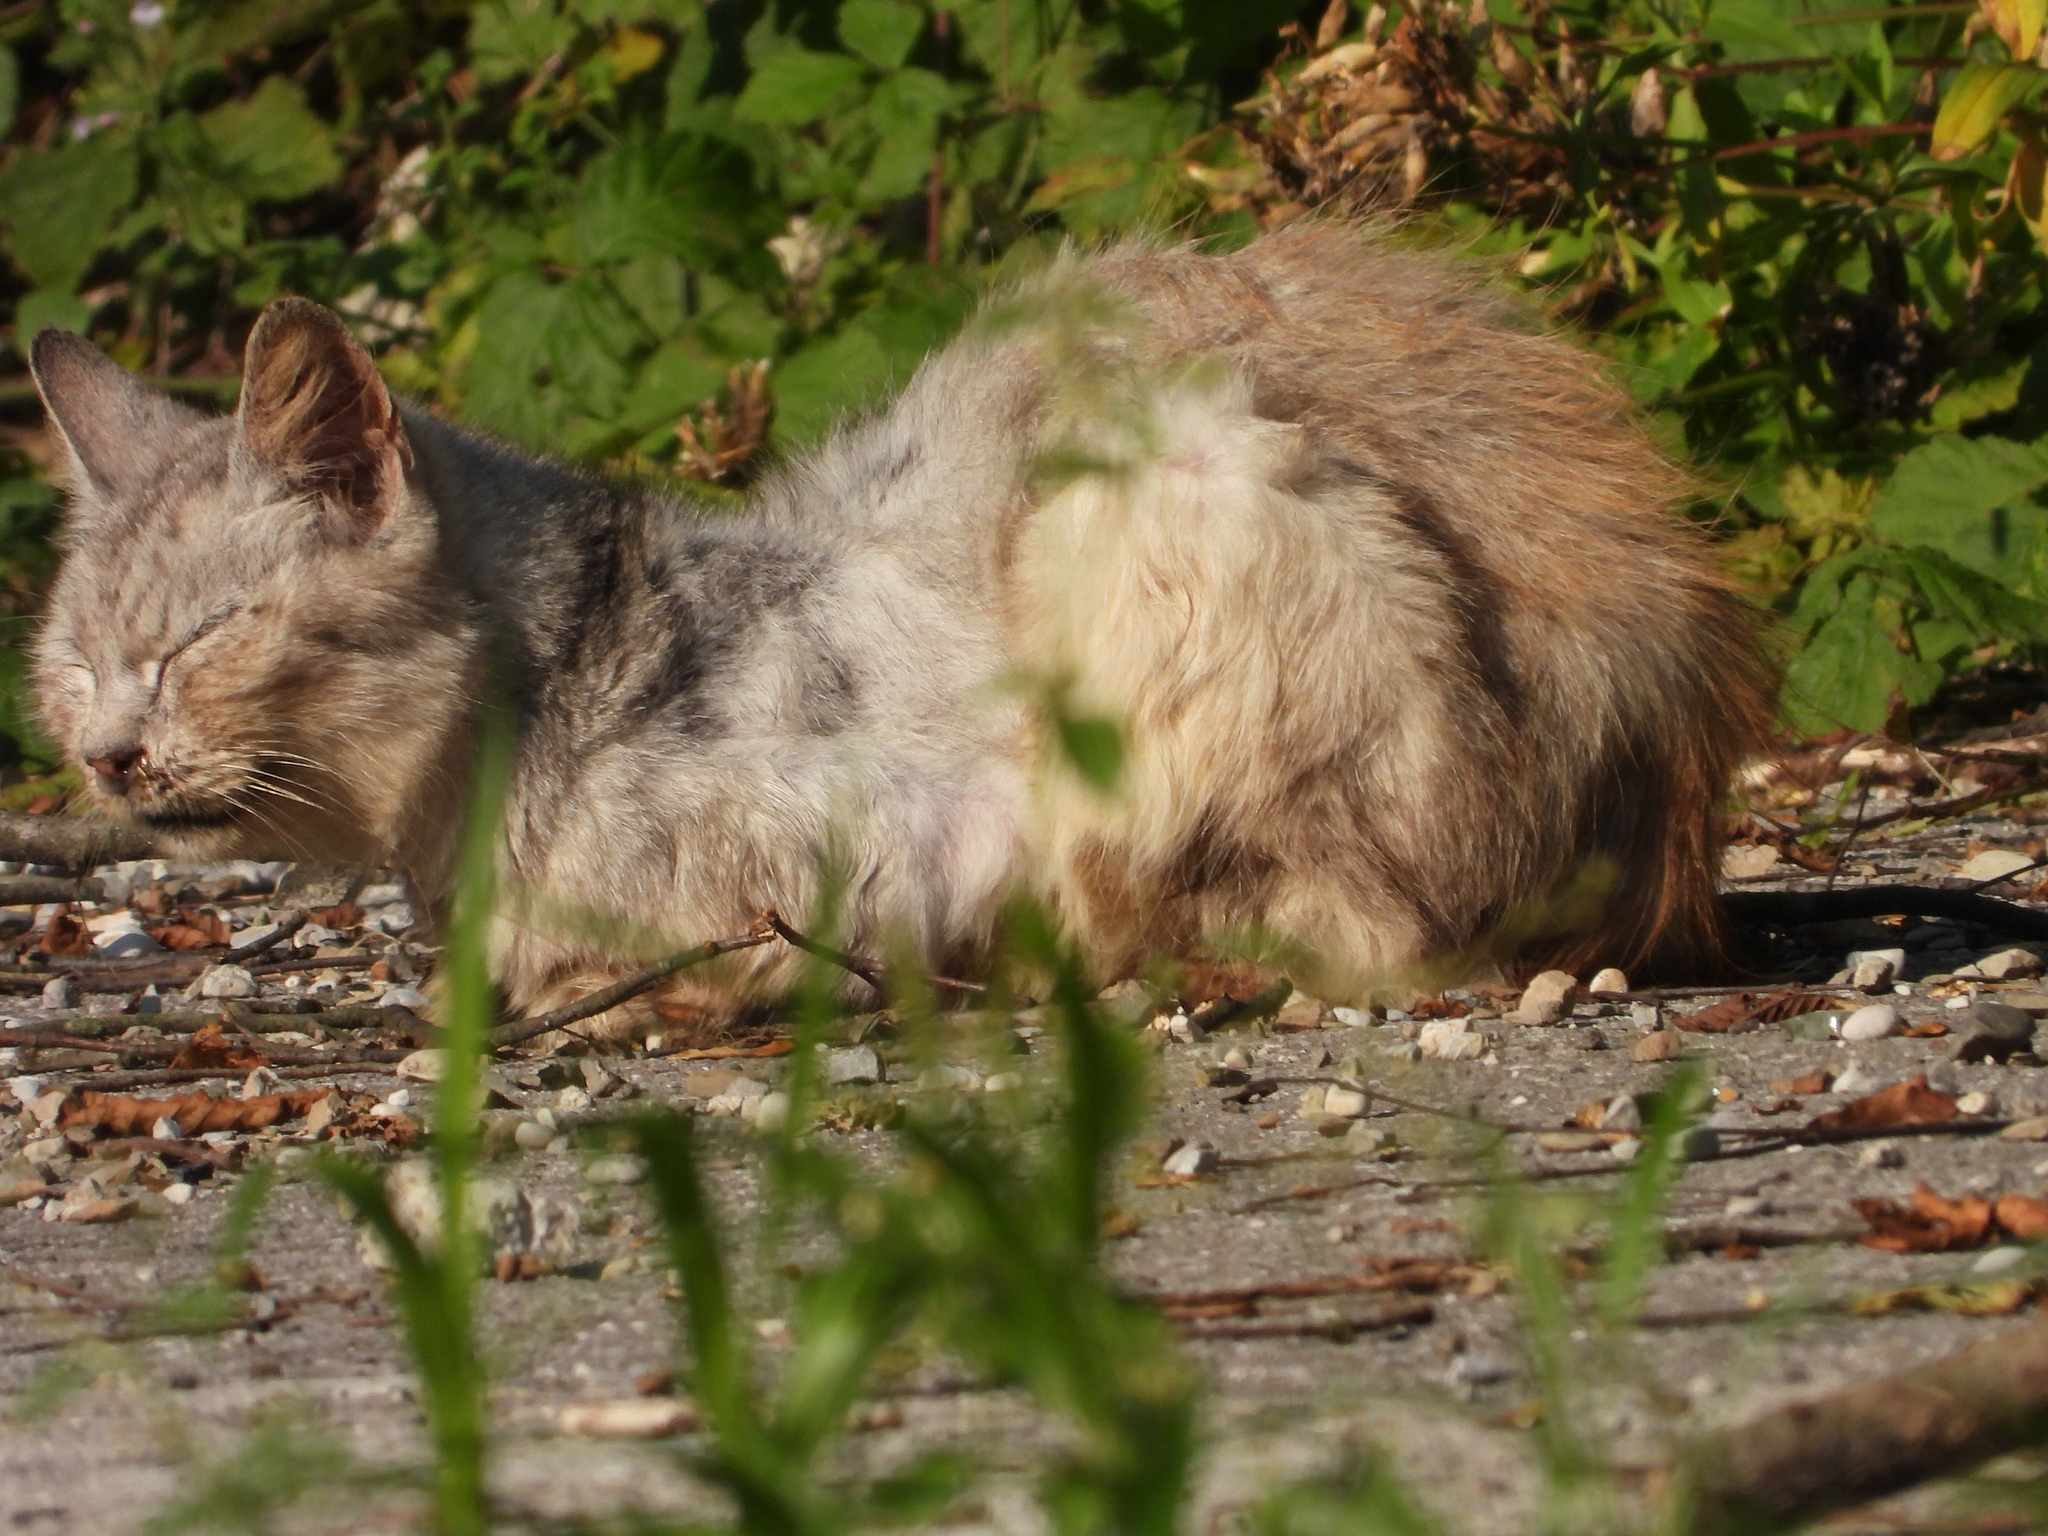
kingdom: Animalia
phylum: Chordata
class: Mammalia
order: Carnivora
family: Felidae
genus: Felis
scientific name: Felis catus
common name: Domestic cat
